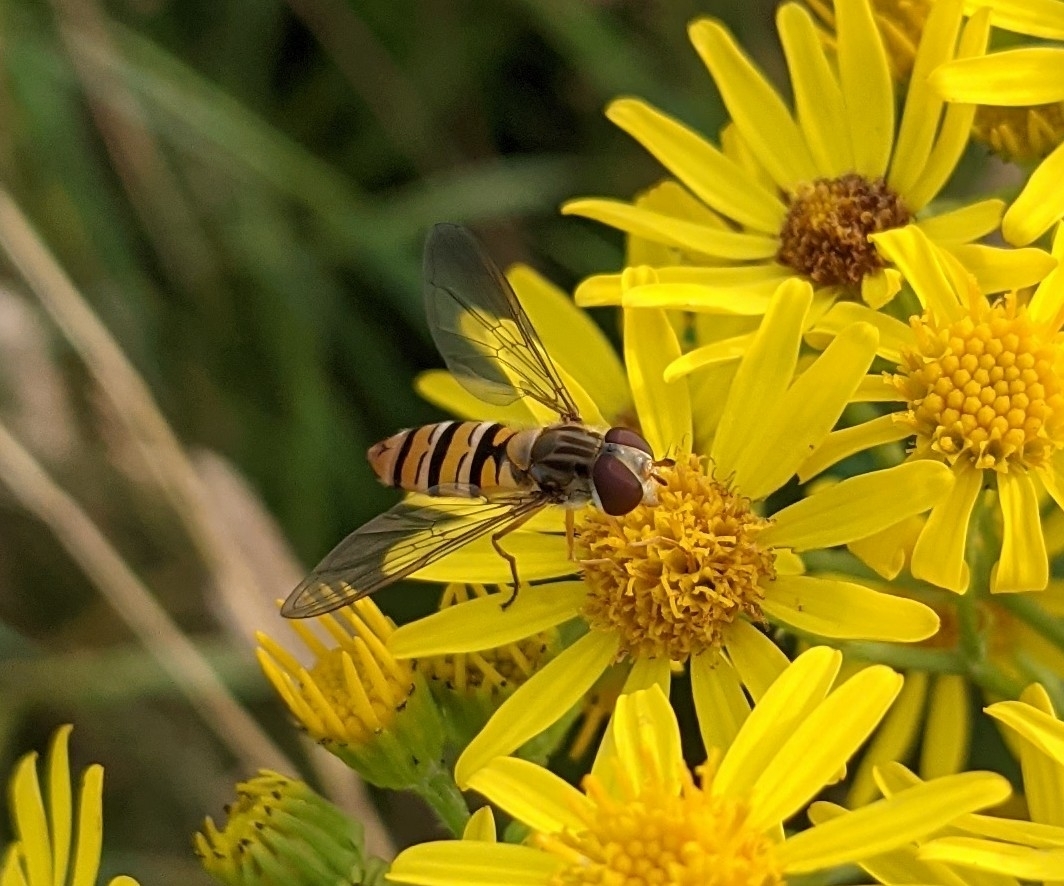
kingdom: Animalia
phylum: Arthropoda
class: Insecta
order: Diptera
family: Syrphidae
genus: Episyrphus
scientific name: Episyrphus balteatus
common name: Marmalade hoverfly
